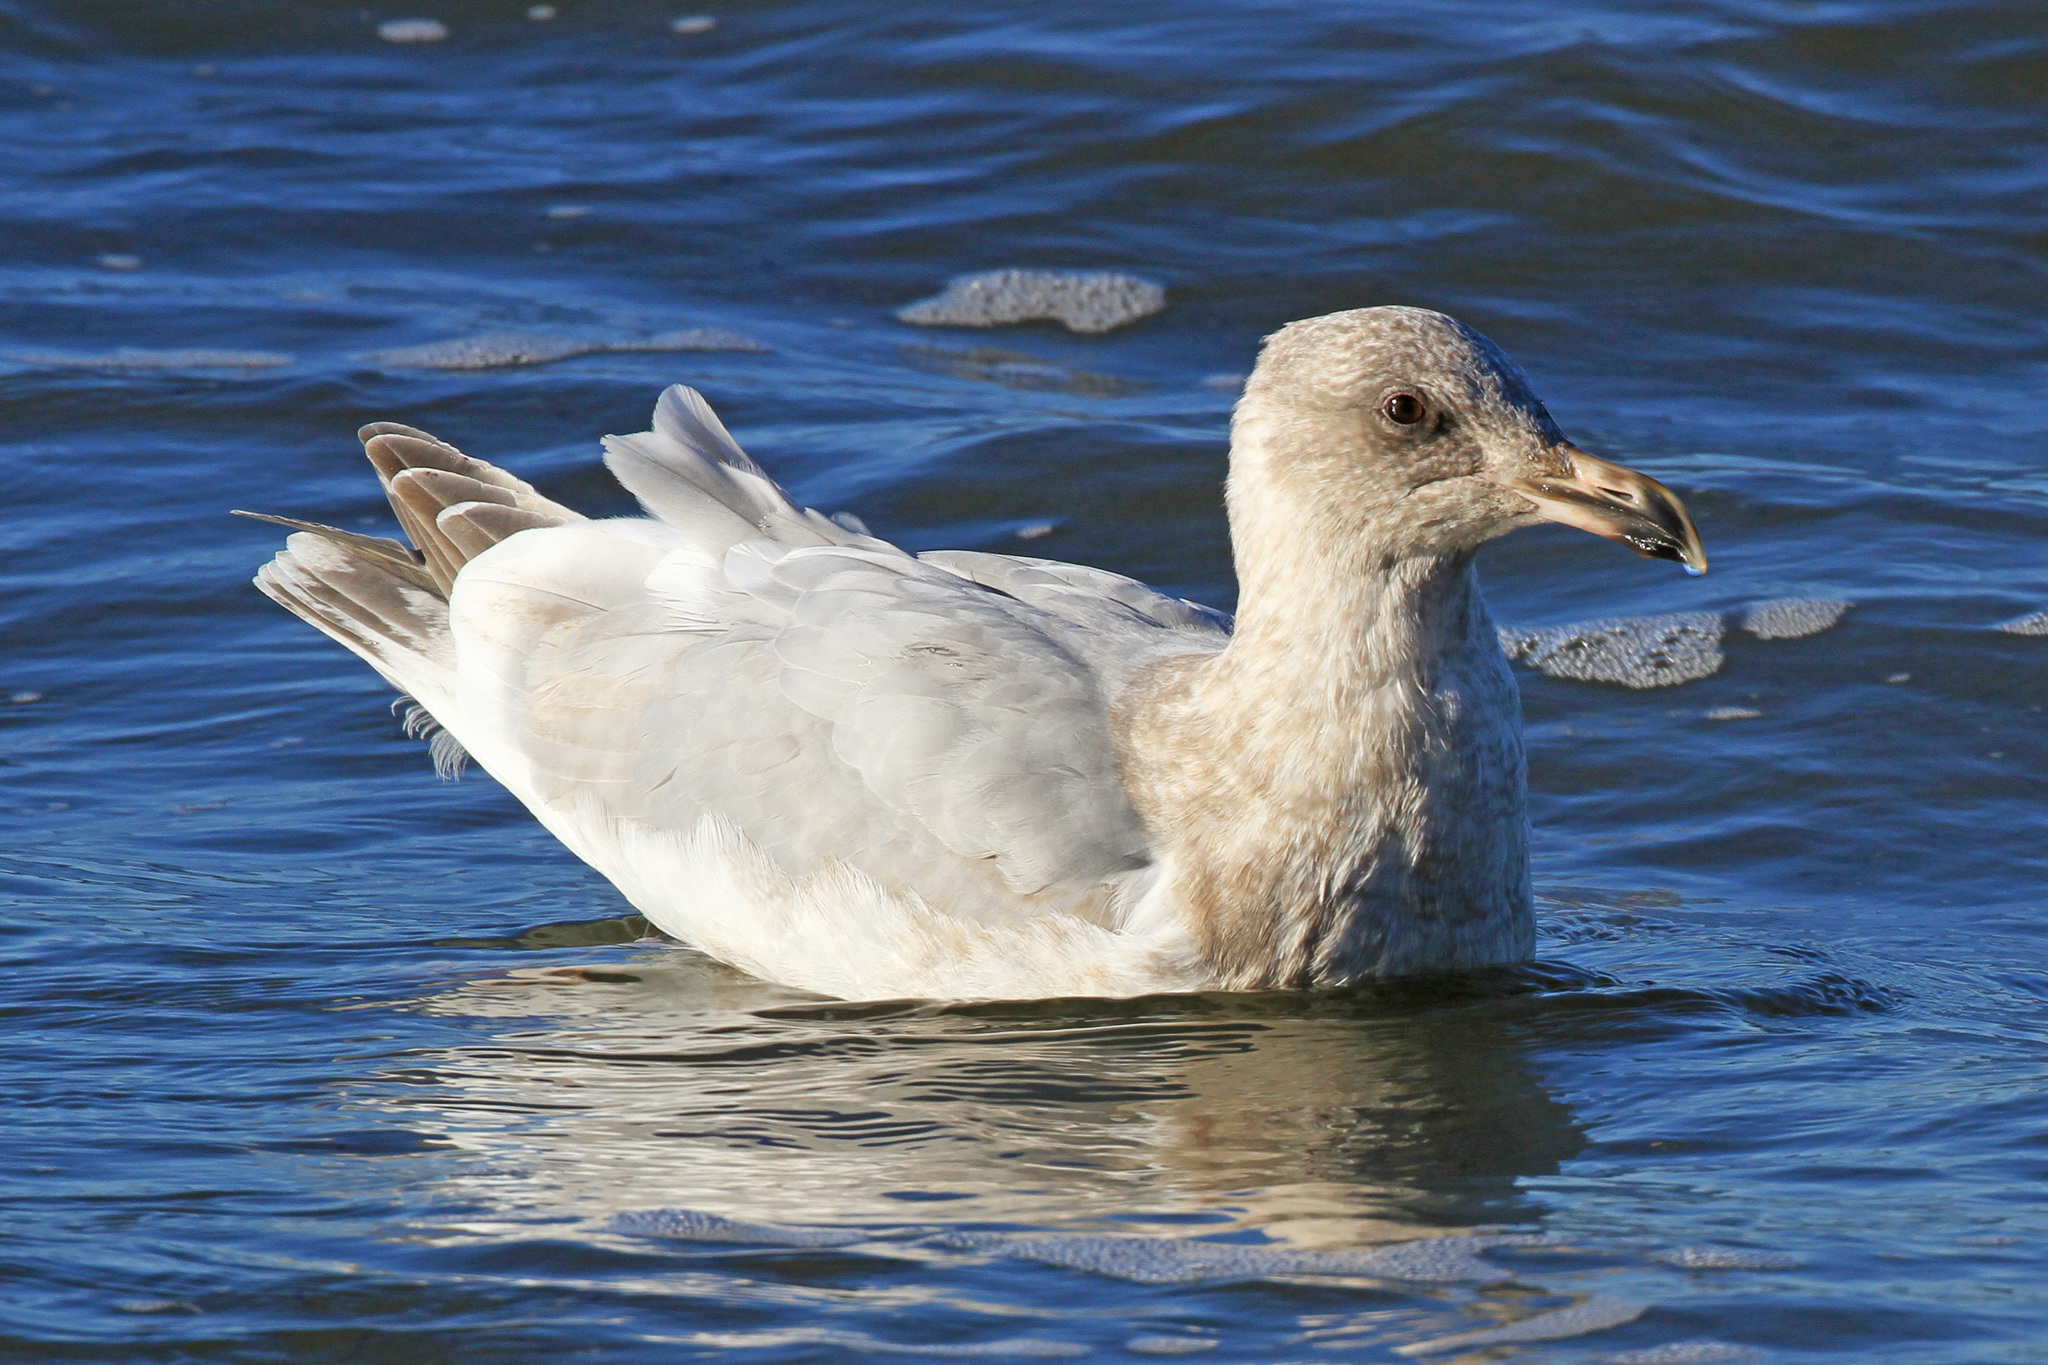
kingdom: Animalia
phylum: Chordata
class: Aves
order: Charadriiformes
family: Laridae
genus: Larus
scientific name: Larus
